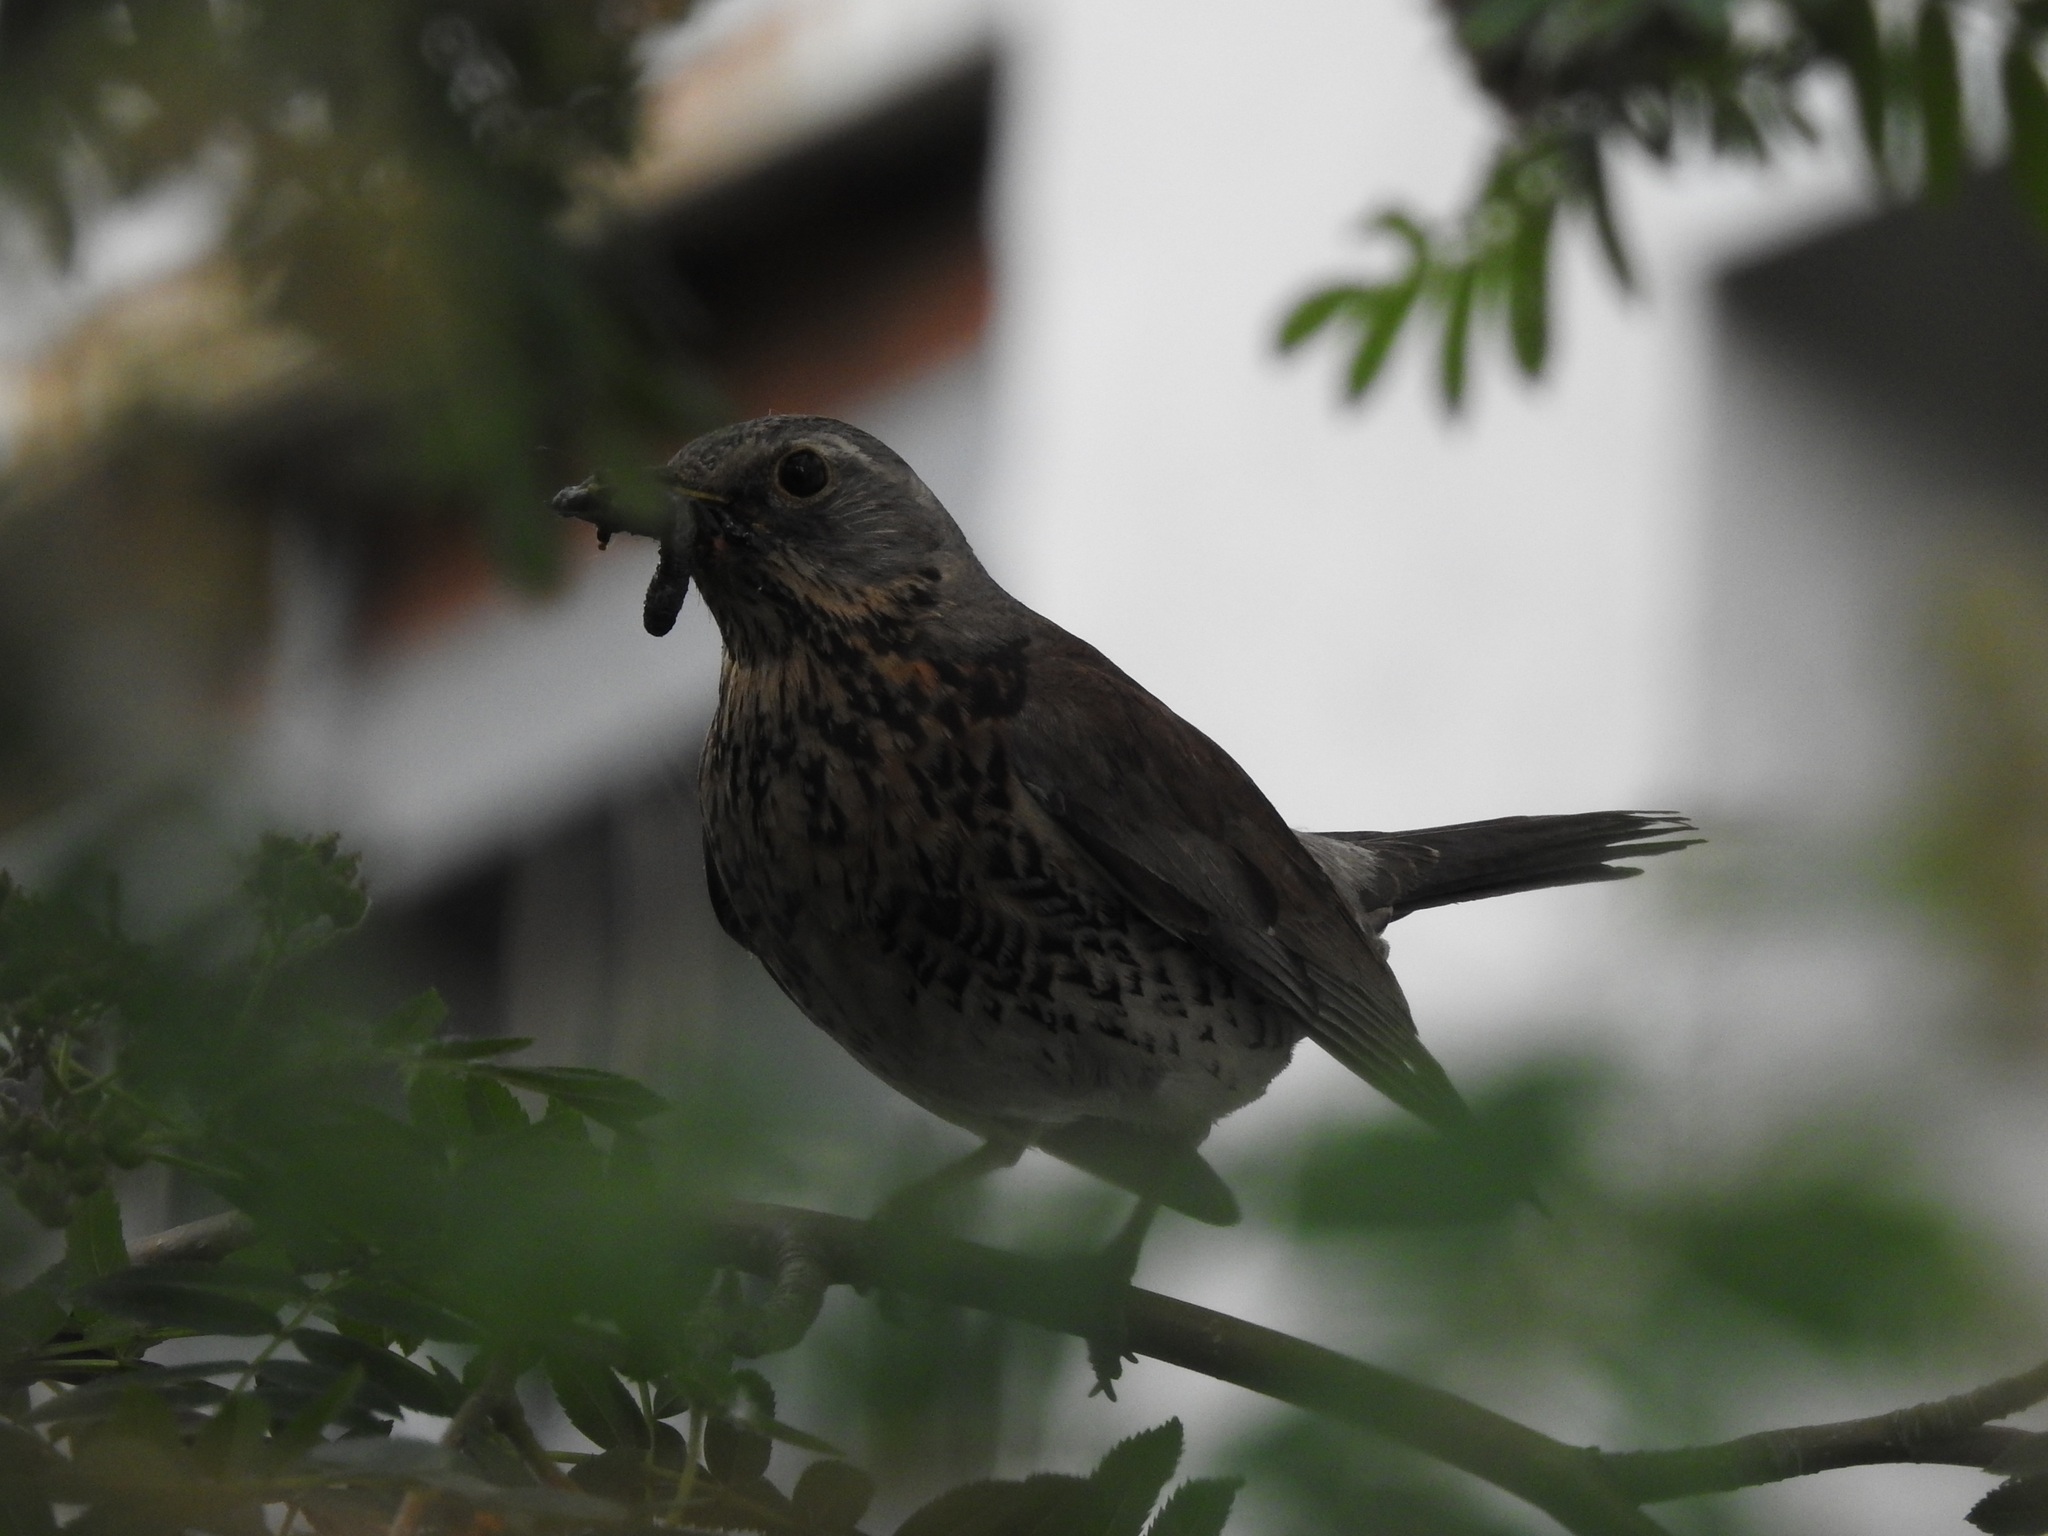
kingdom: Animalia
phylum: Chordata
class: Aves
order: Passeriformes
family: Turdidae
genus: Turdus
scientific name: Turdus pilaris
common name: Fieldfare
